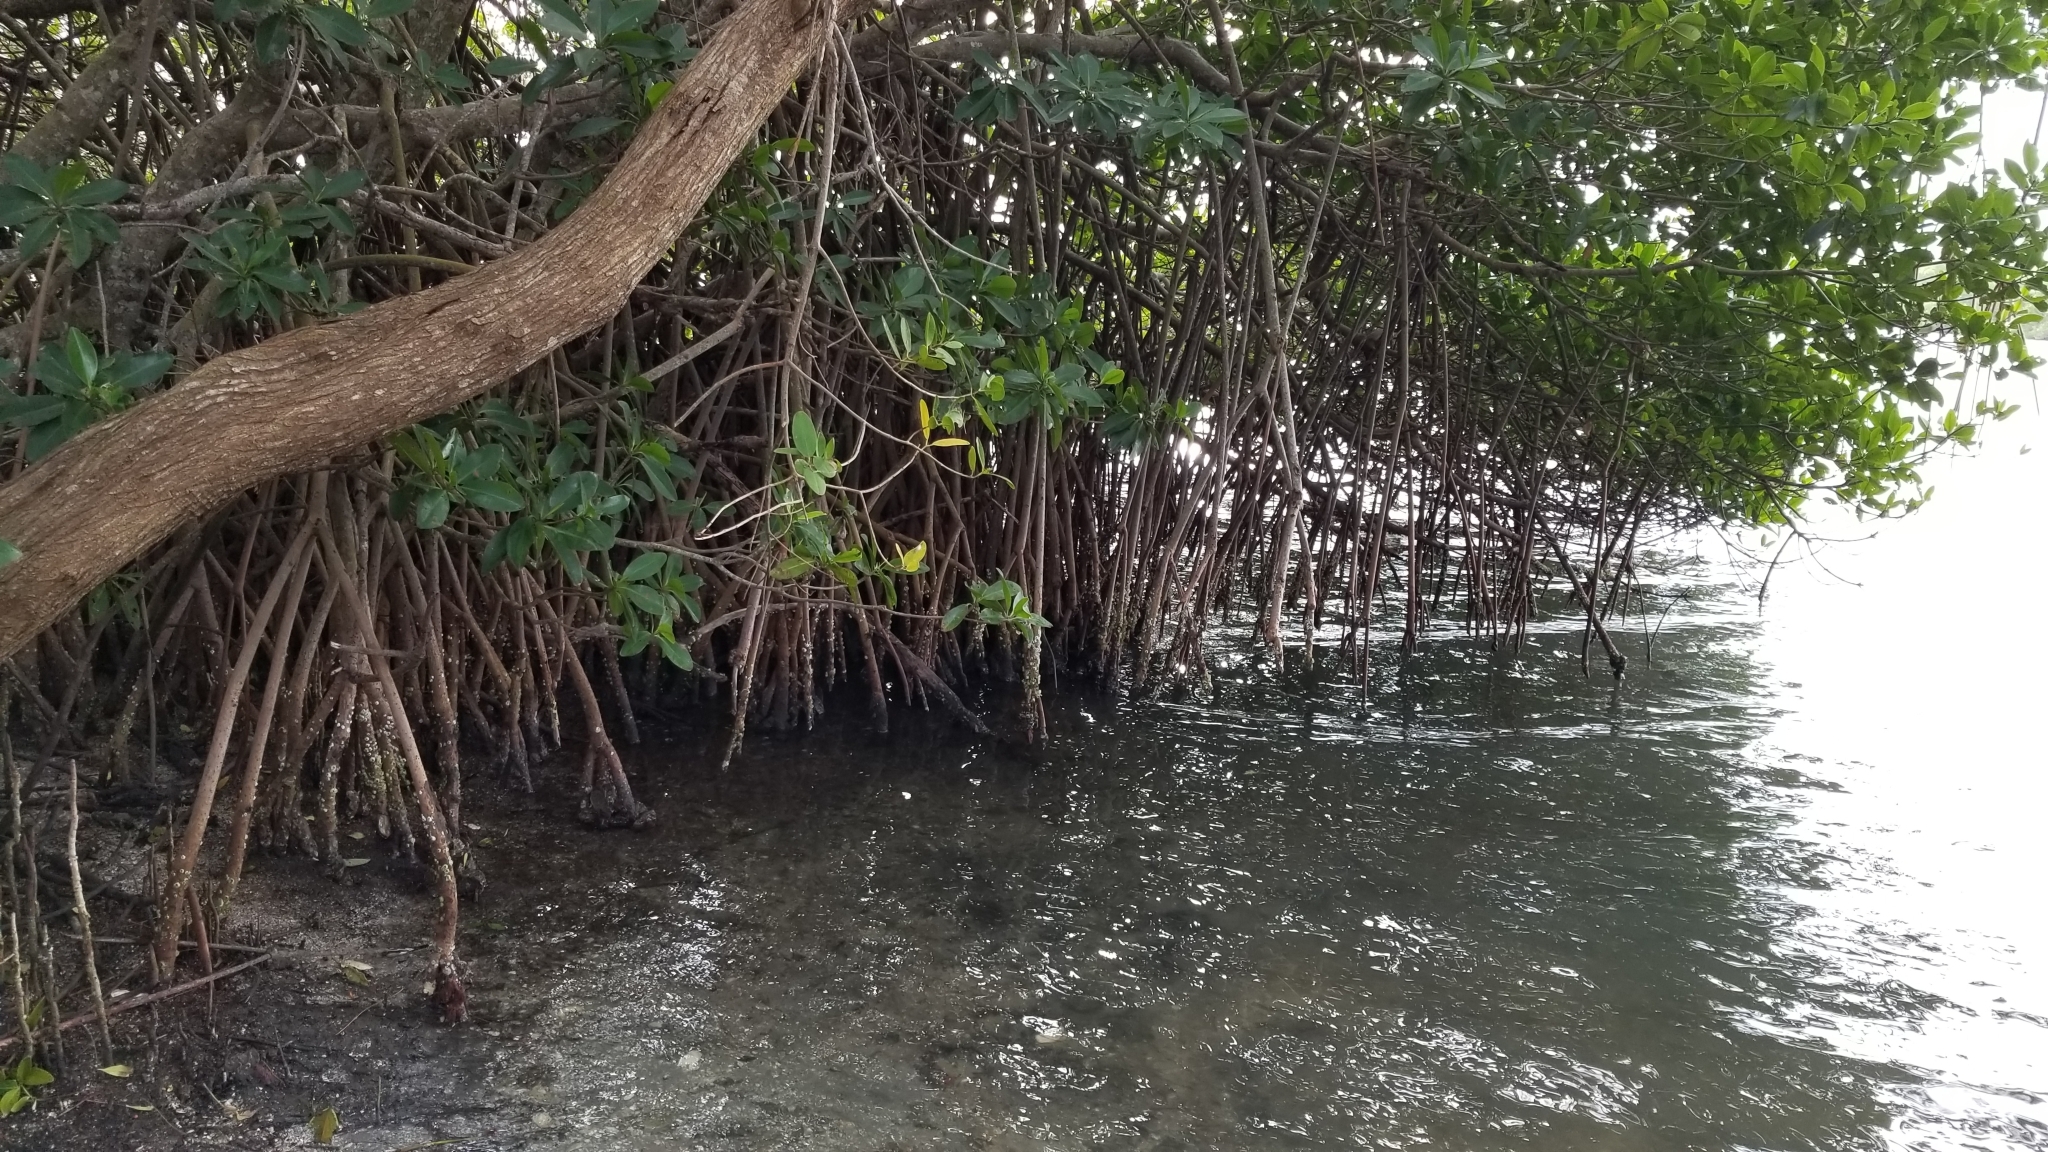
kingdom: Plantae
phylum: Tracheophyta
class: Magnoliopsida
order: Malpighiales
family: Rhizophoraceae
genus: Rhizophora
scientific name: Rhizophora mangle
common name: Red mangrove
